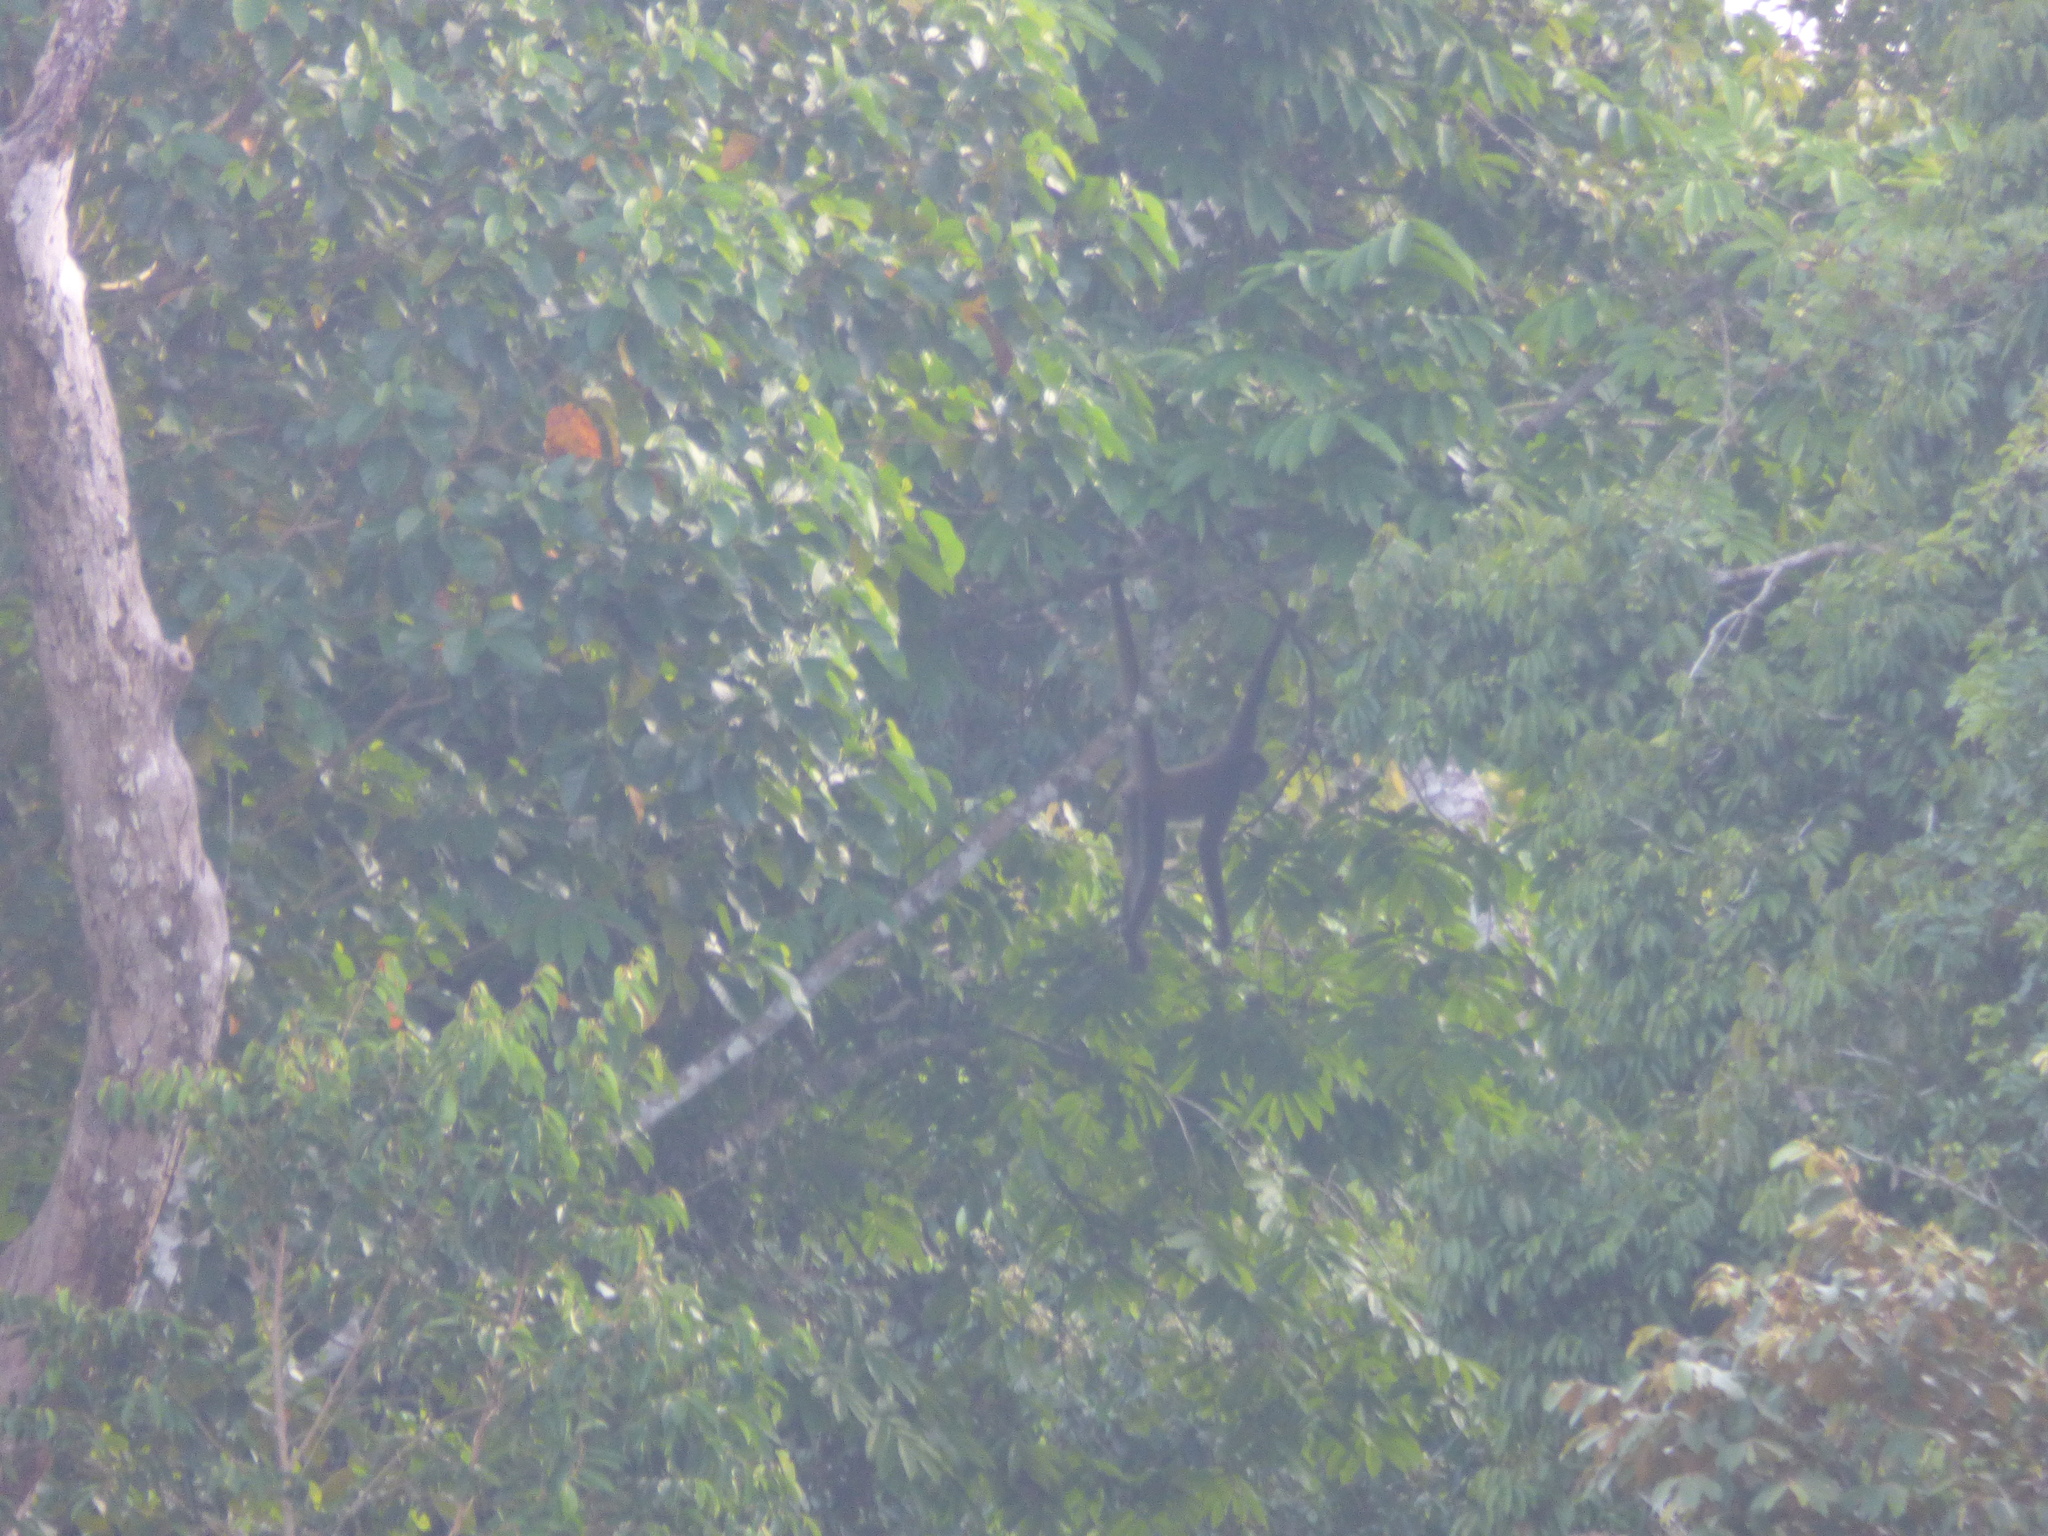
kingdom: Animalia
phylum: Chordata
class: Mammalia
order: Primates
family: Atelidae
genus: Ateles
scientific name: Ateles hybridus
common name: Brown spider monkey
